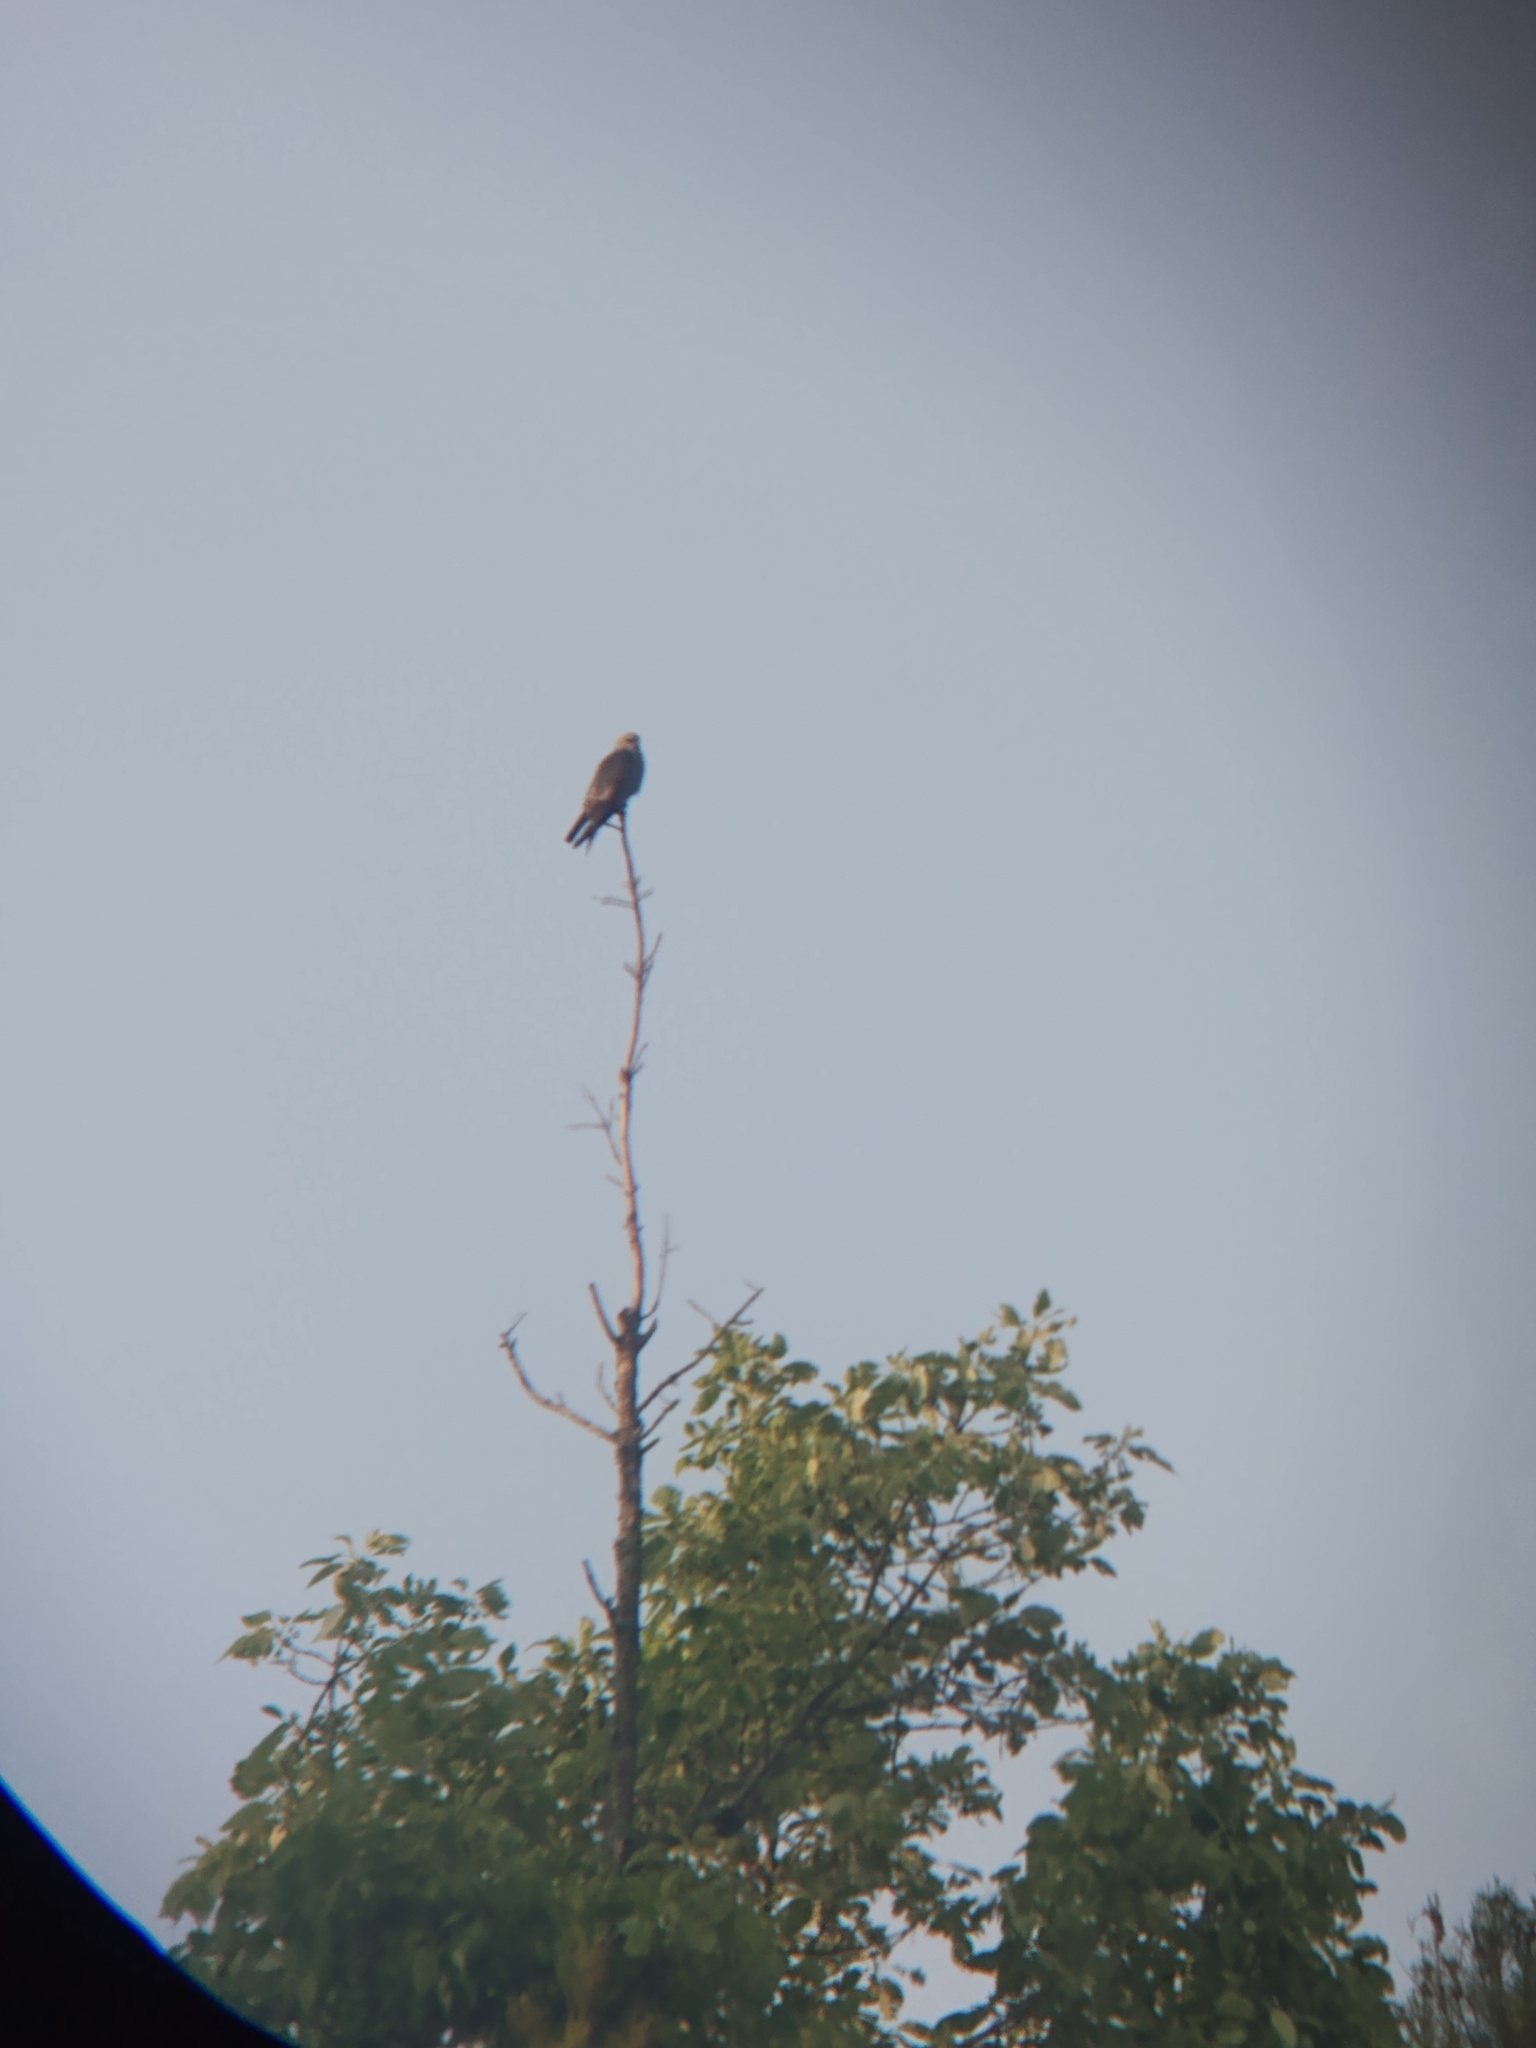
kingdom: Animalia
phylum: Chordata
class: Aves
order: Accipitriformes
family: Accipitridae
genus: Ictinia
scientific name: Ictinia mississippiensis
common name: Mississippi kite
